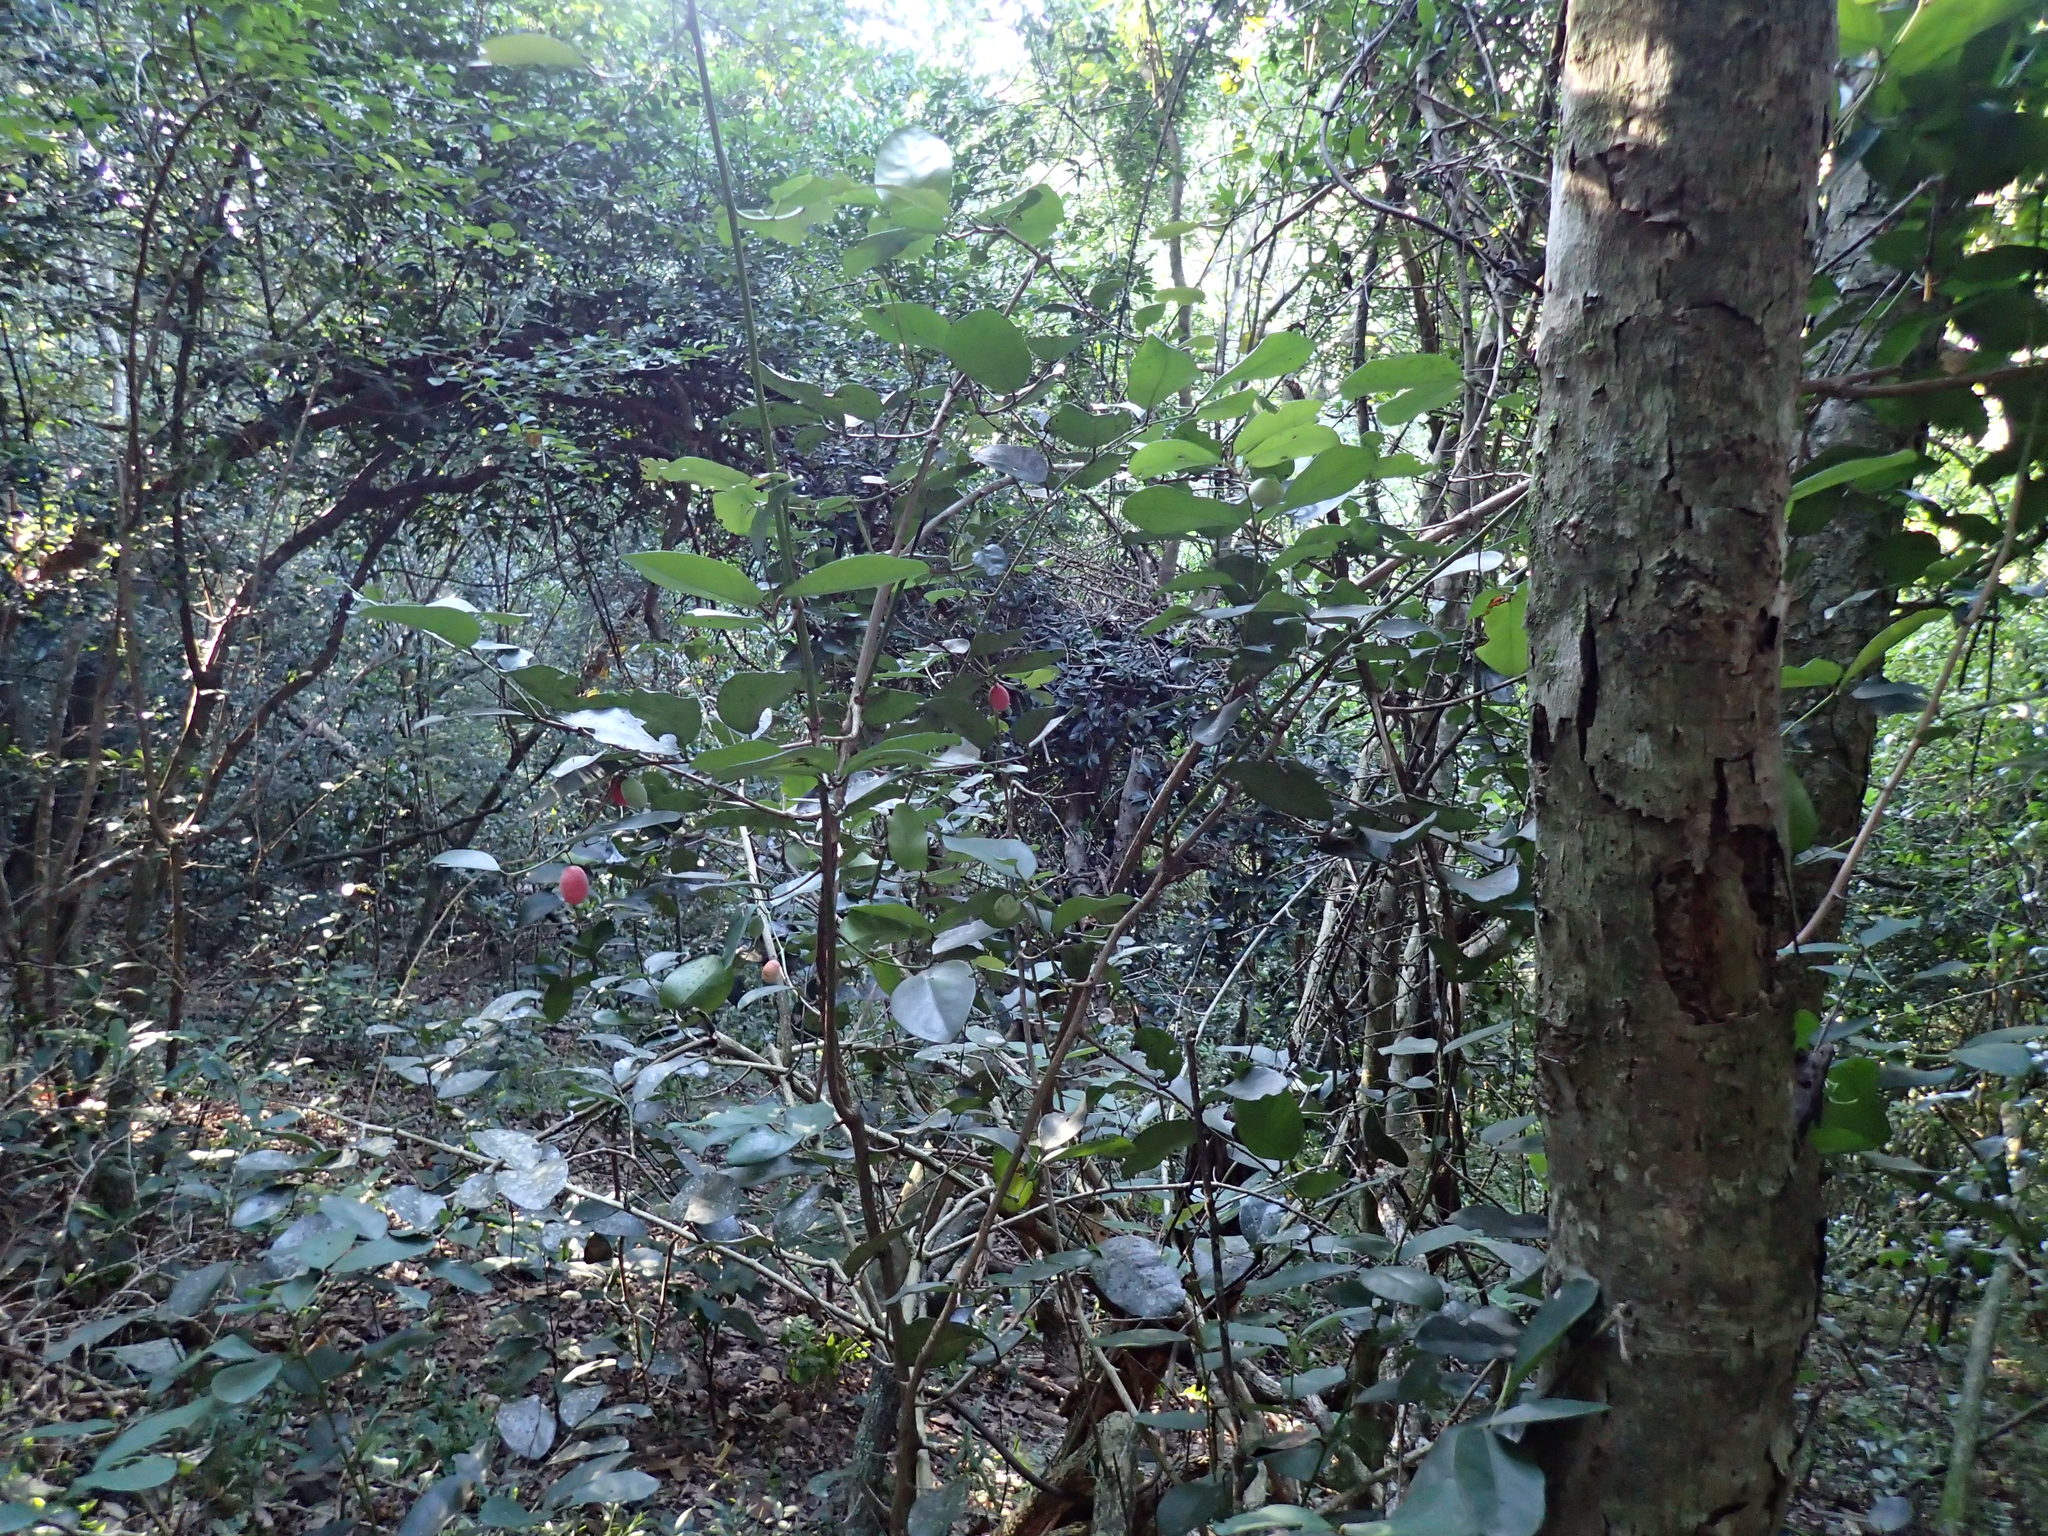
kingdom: Plantae
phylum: Tracheophyta
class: Magnoliopsida
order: Celastrales
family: Celastraceae
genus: Allocassine
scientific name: Allocassine laurifolia
